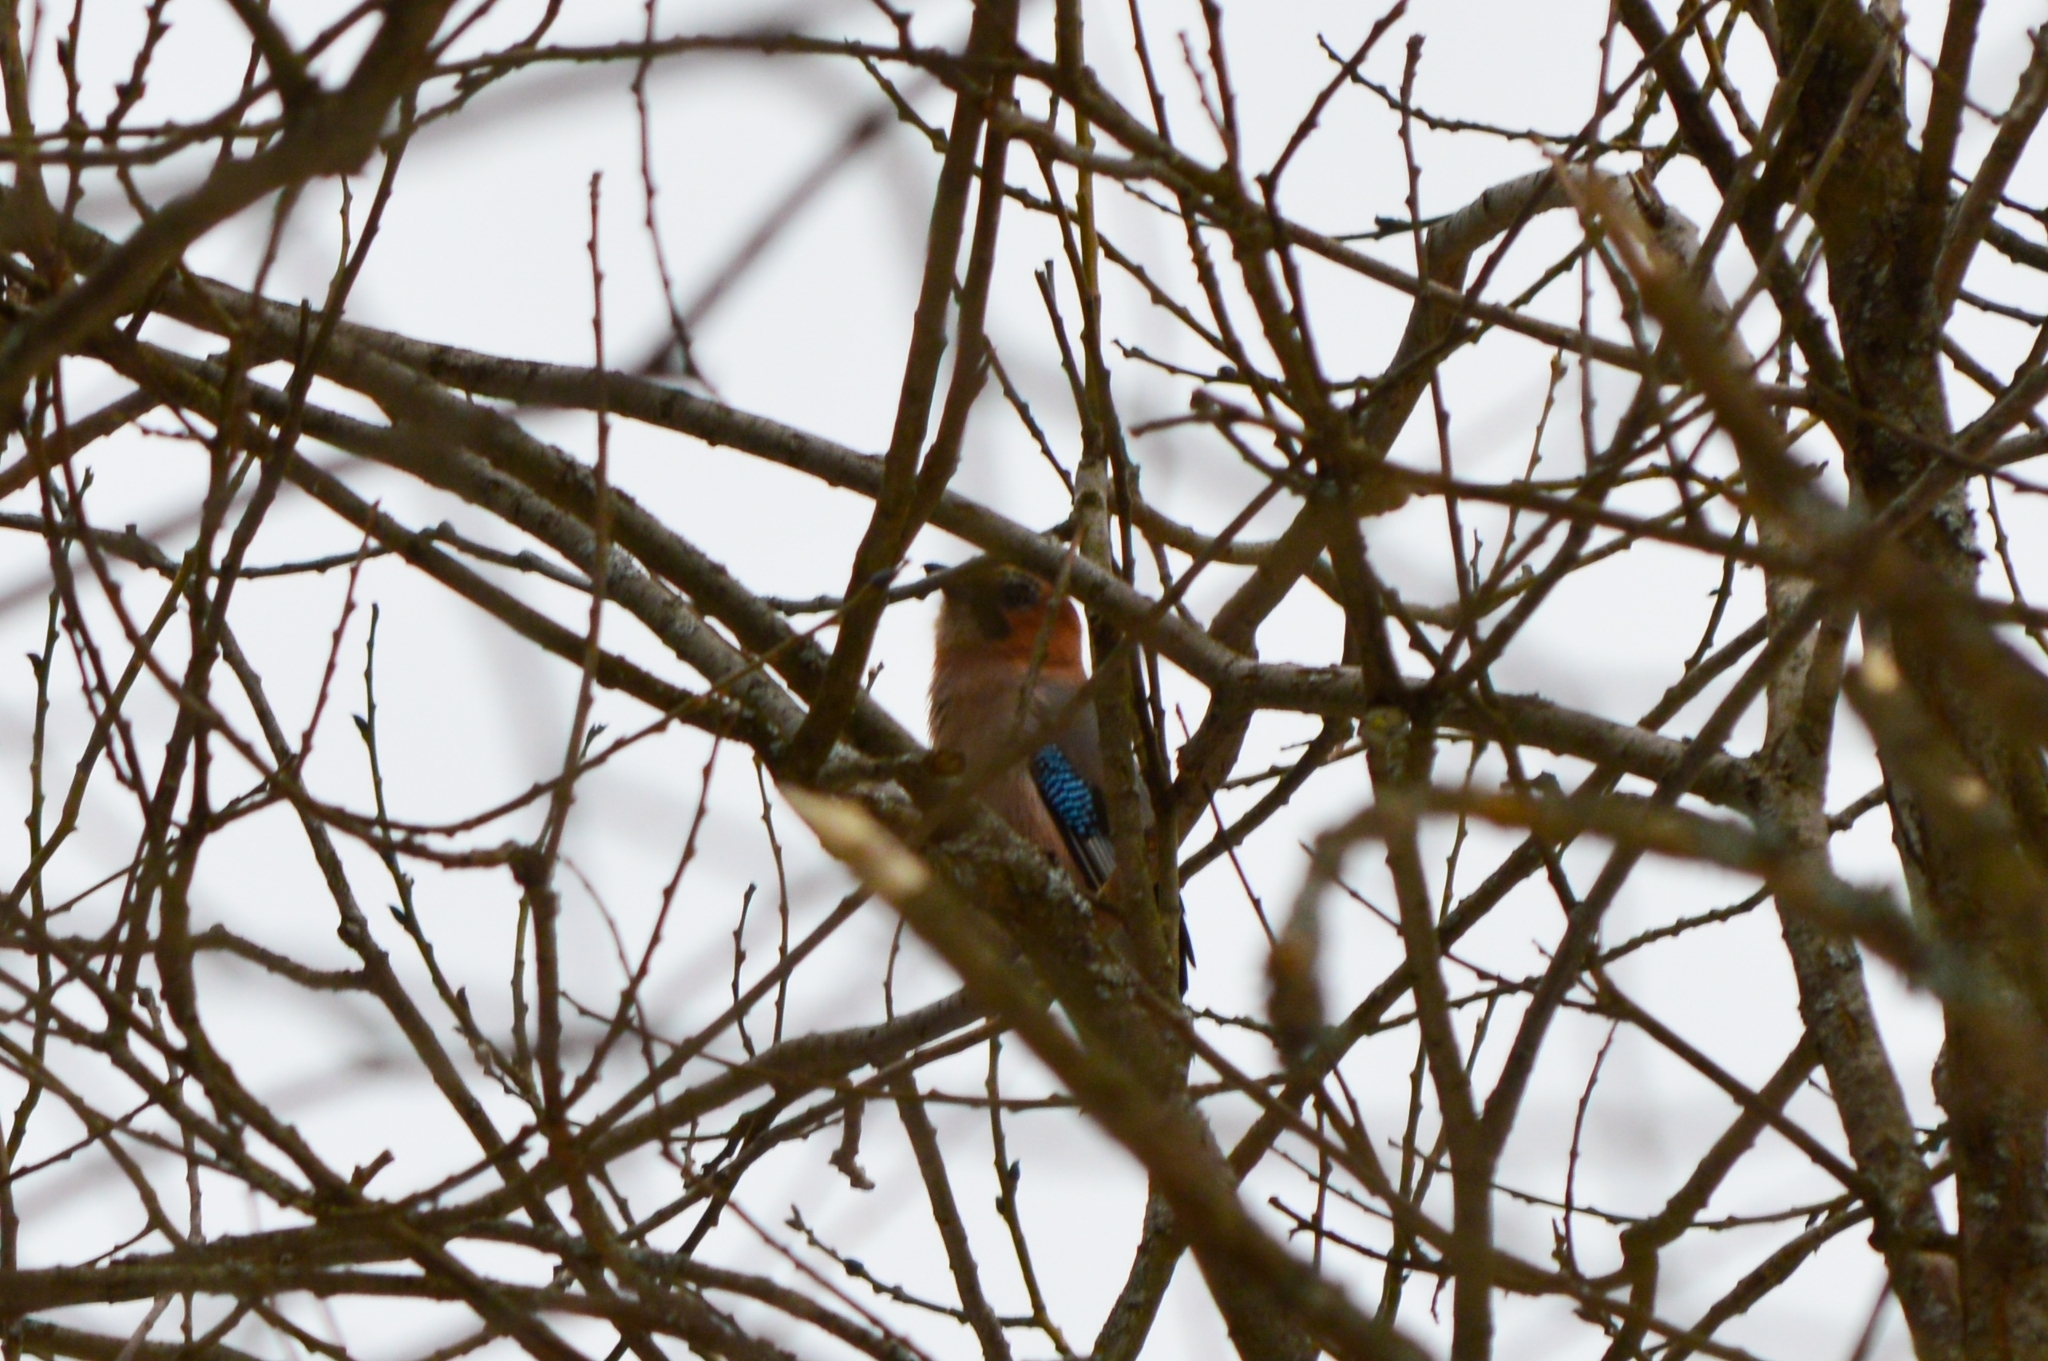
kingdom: Animalia
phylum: Chordata
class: Aves
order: Passeriformes
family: Corvidae
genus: Garrulus
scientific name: Garrulus glandarius
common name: Eurasian jay
